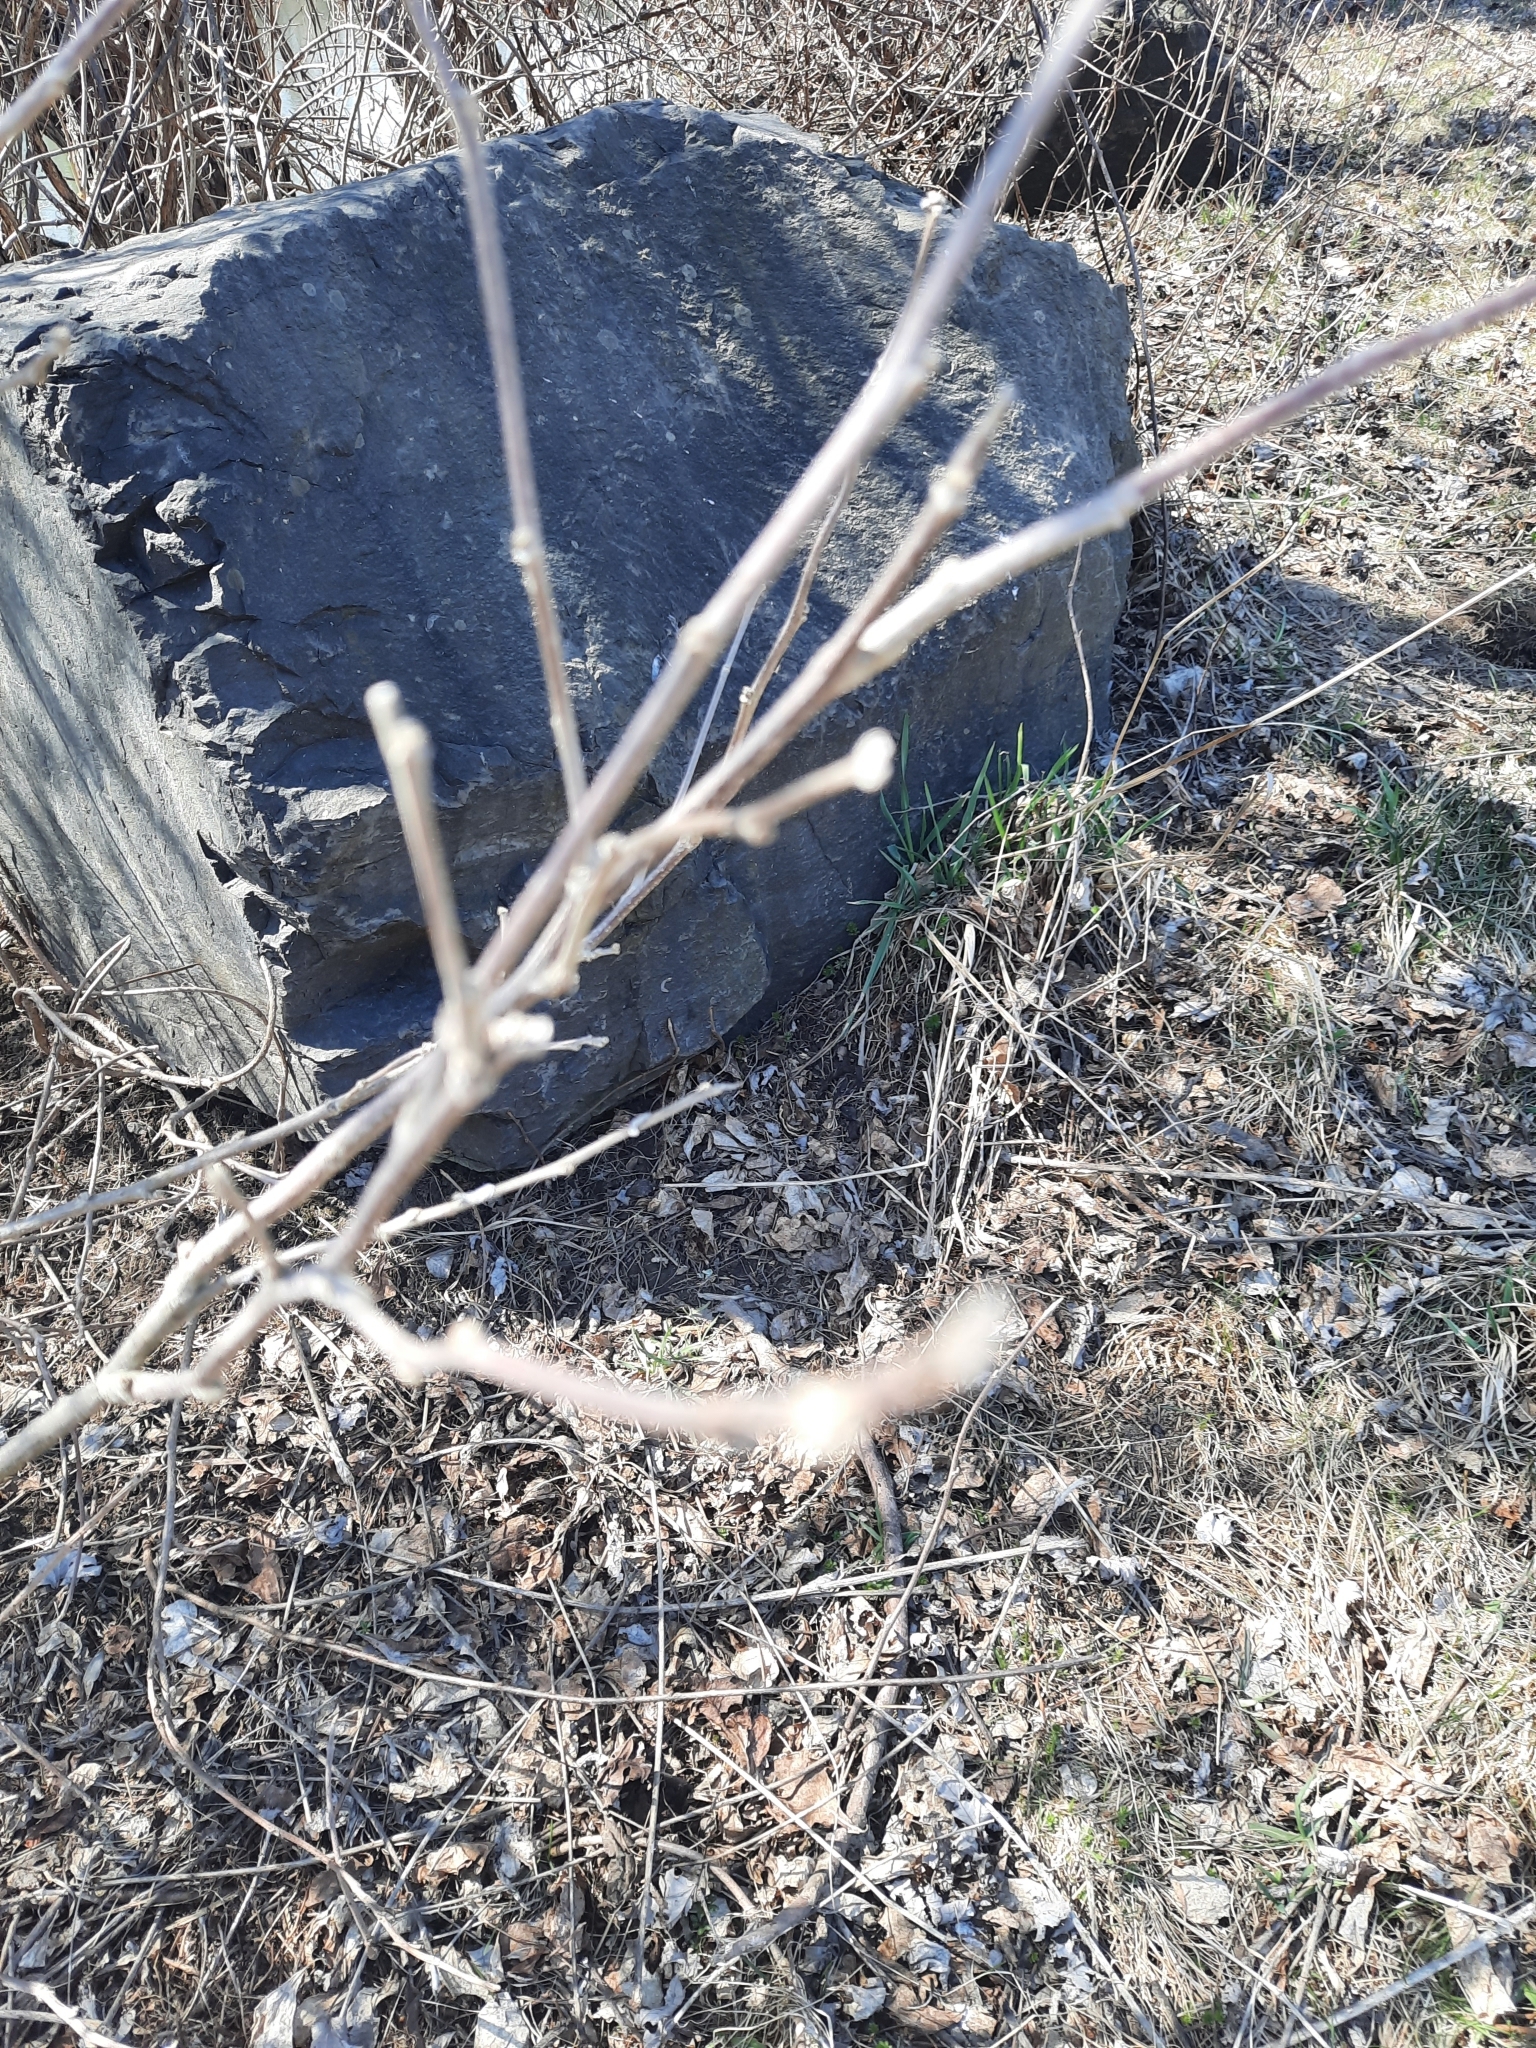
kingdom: Plantae
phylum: Tracheophyta
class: Magnoliopsida
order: Malvales
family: Malvaceae
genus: Hibiscus
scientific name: Hibiscus syriacus
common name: Syrian ketmia
